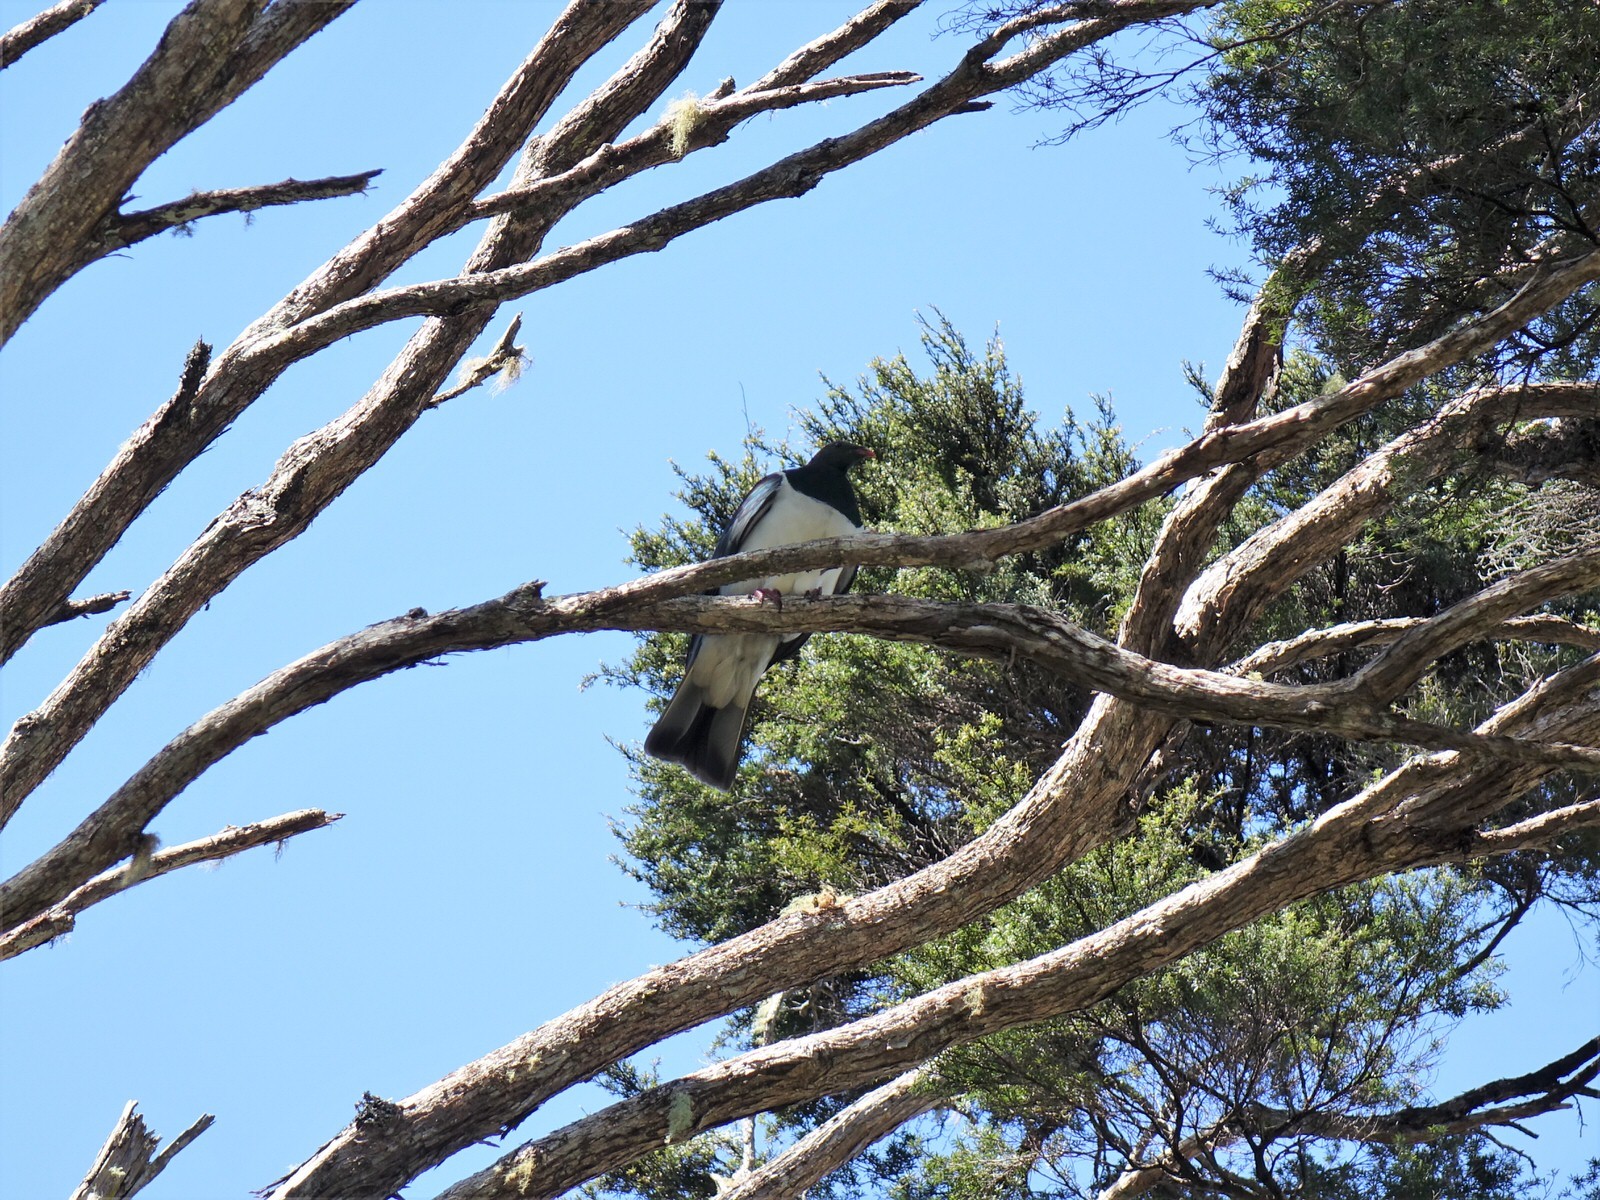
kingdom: Animalia
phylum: Chordata
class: Aves
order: Columbiformes
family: Columbidae
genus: Hemiphaga
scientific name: Hemiphaga novaeseelandiae
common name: New zealand pigeon
